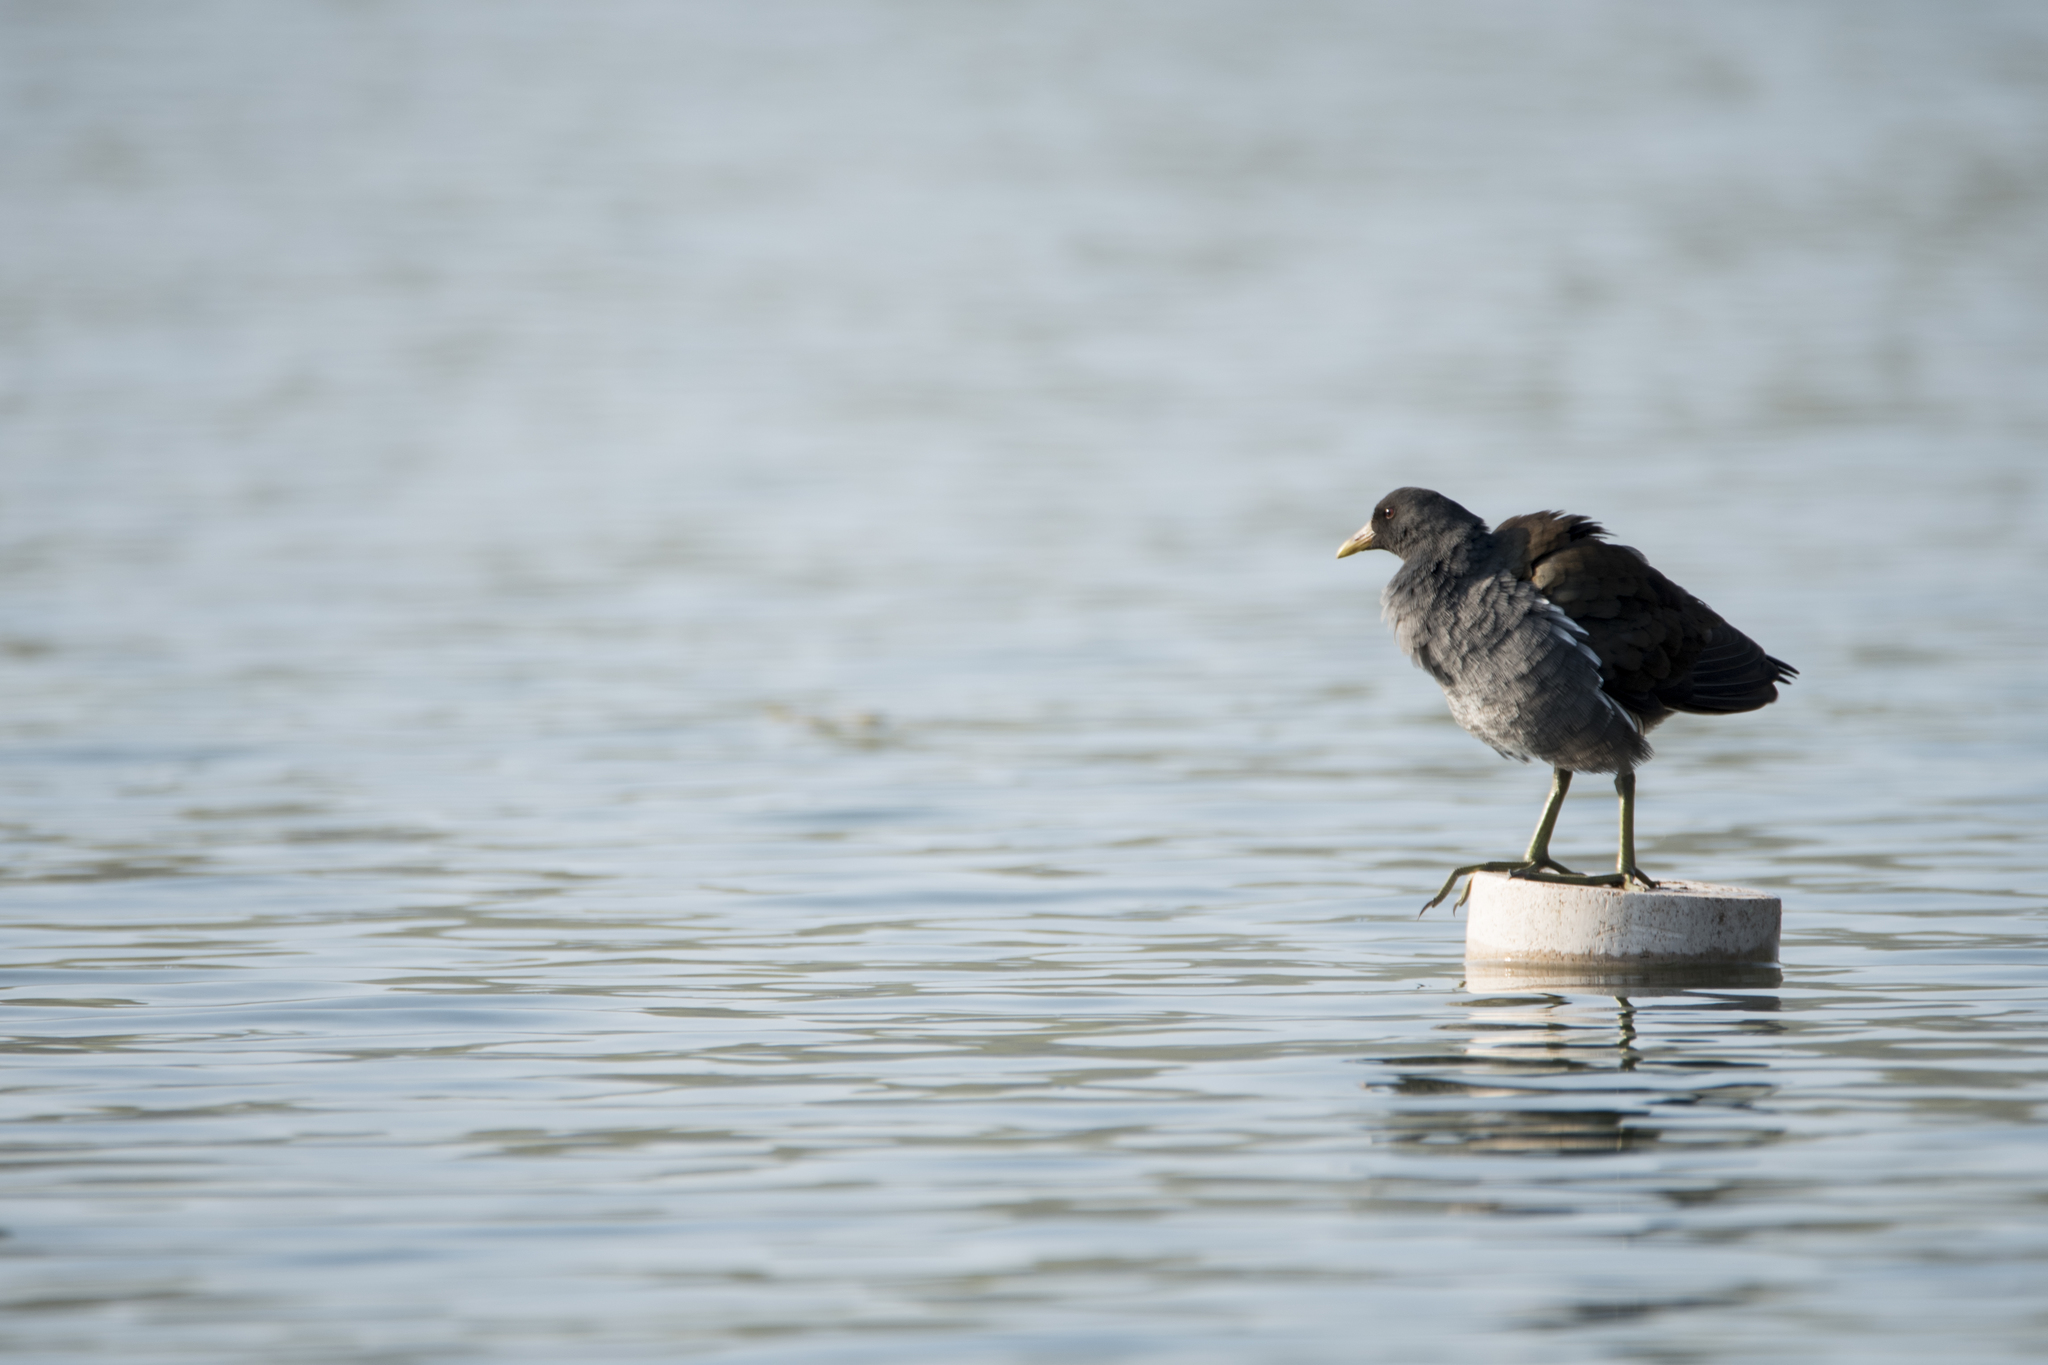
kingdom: Animalia
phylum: Chordata
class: Aves
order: Gruiformes
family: Rallidae
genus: Gallinula
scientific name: Gallinula chloropus
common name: Common moorhen
